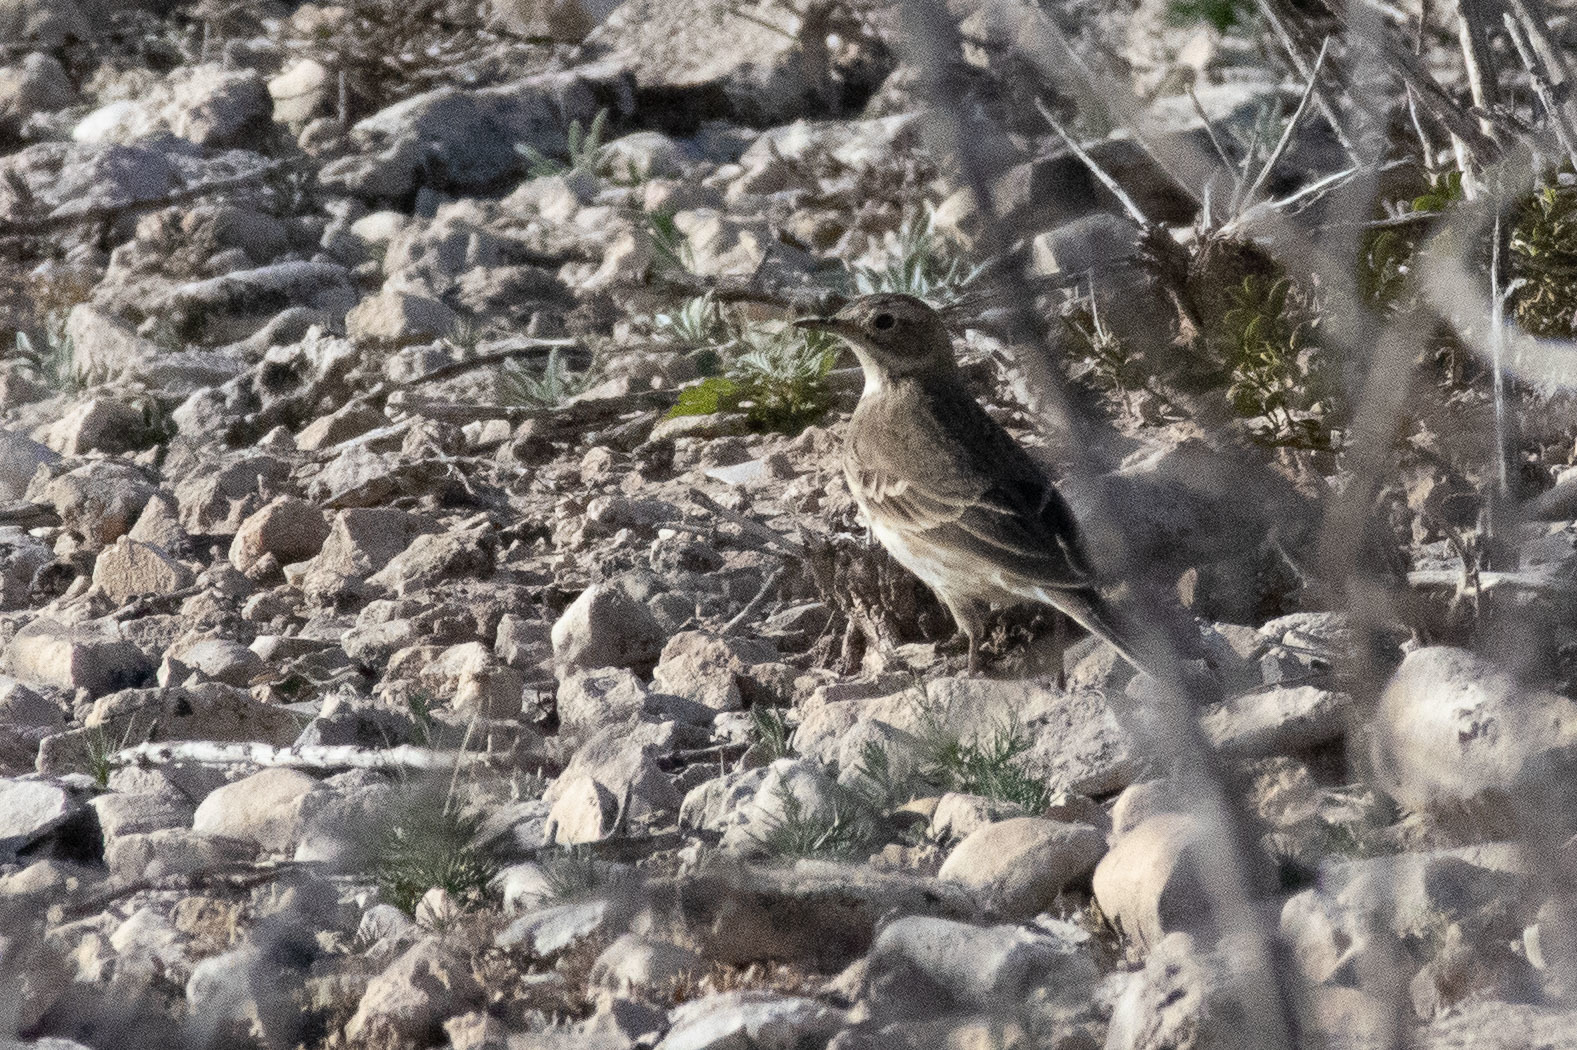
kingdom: Animalia
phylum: Chordata
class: Aves
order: Passeriformes
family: Motacillidae
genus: Anthus
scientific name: Anthus rubescens
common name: Buff-bellied pipit
